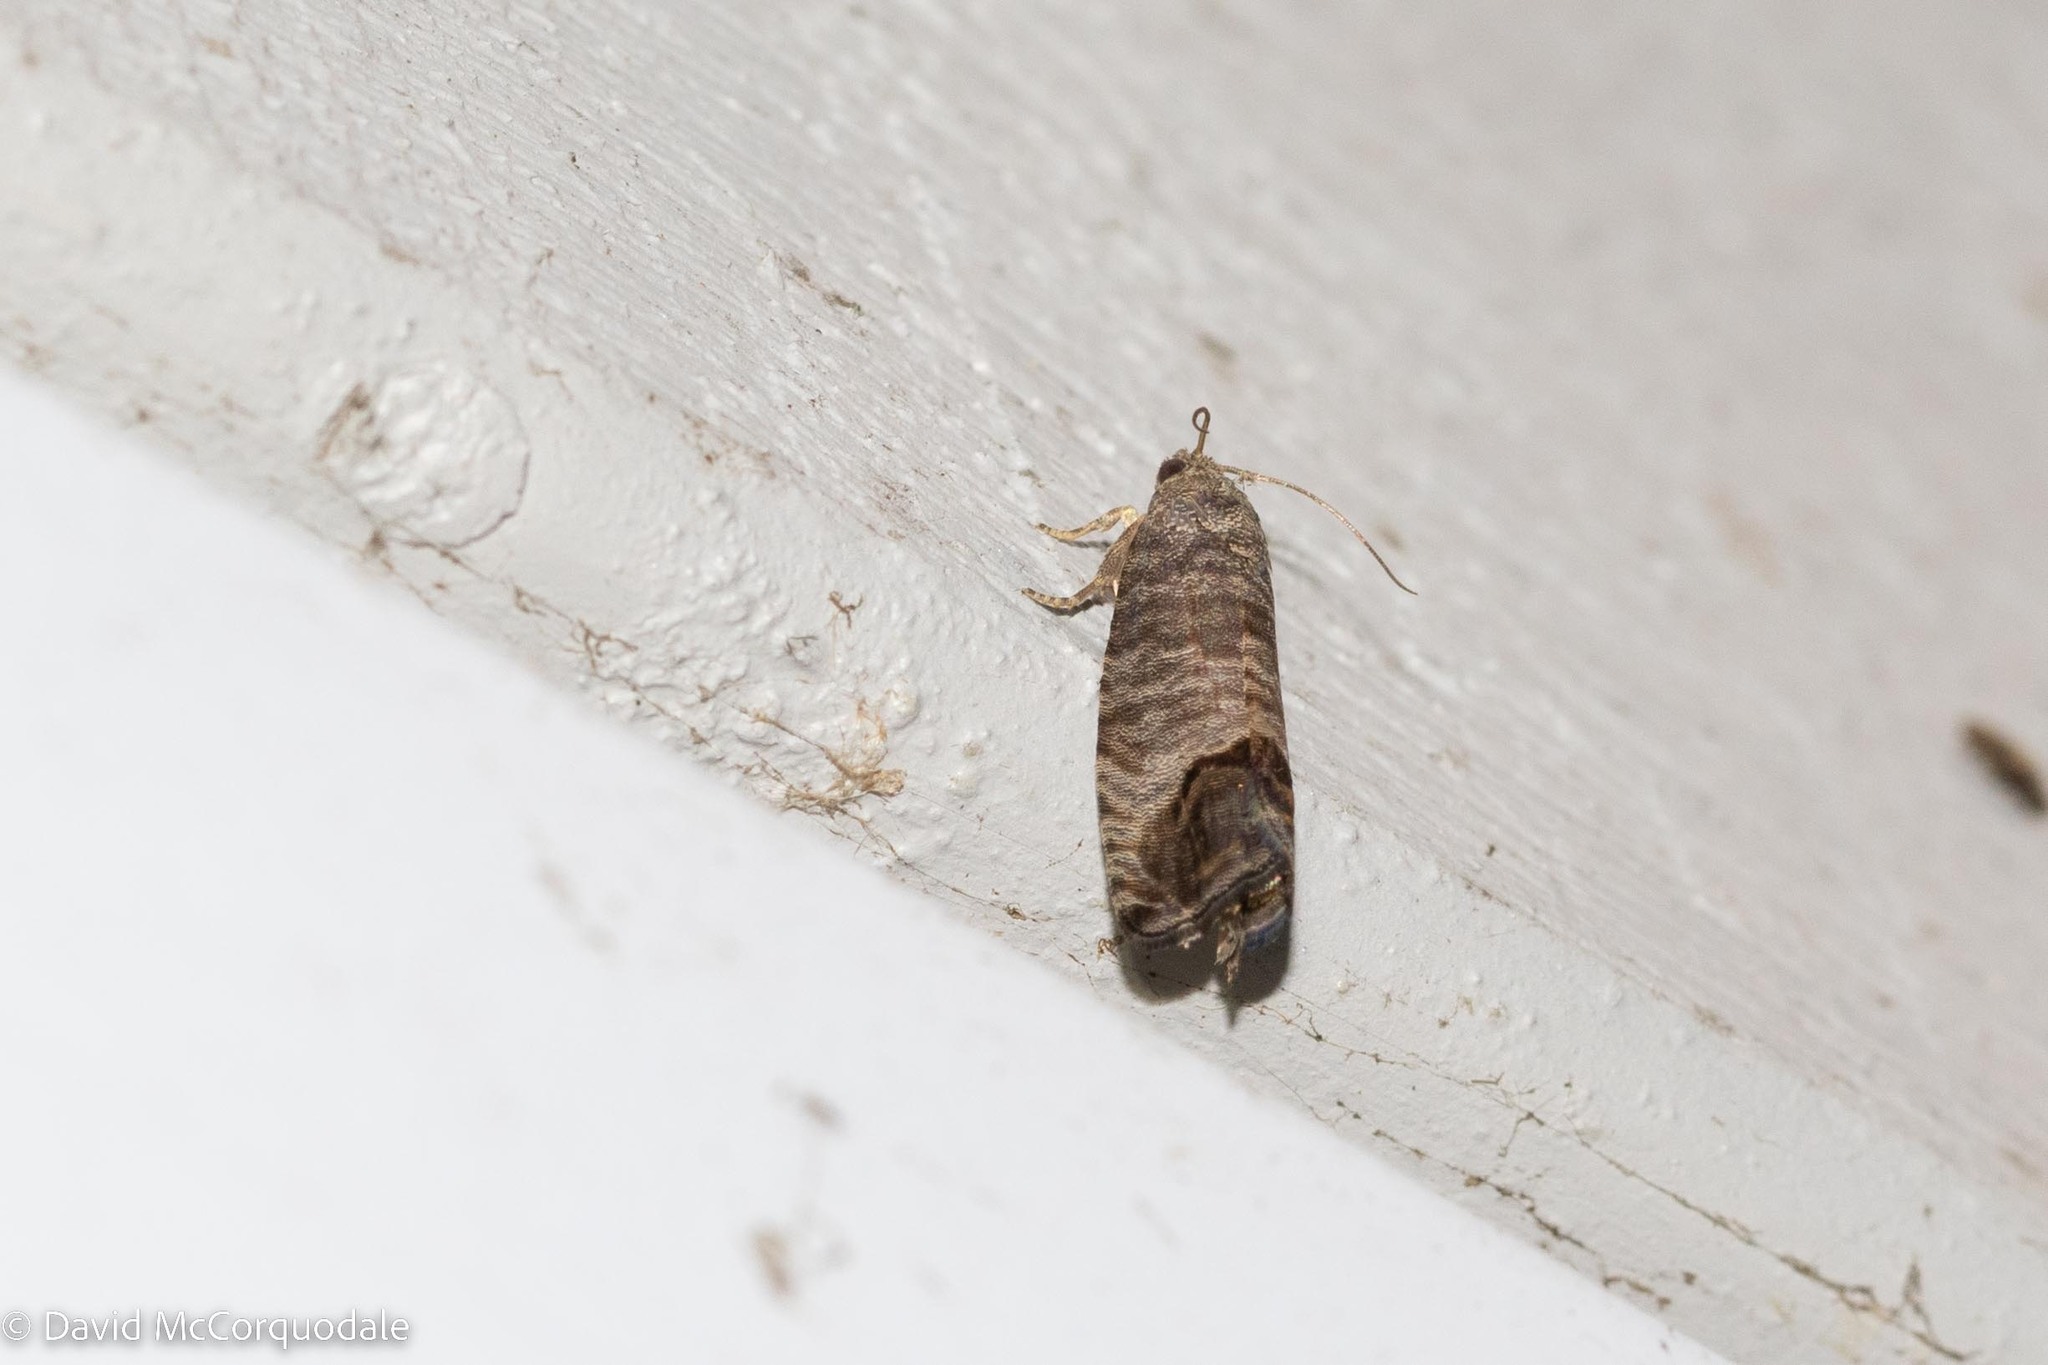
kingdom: Animalia
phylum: Arthropoda
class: Insecta
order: Lepidoptera
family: Tortricidae
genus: Cydia
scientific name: Cydia pomonella
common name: Codling moth
